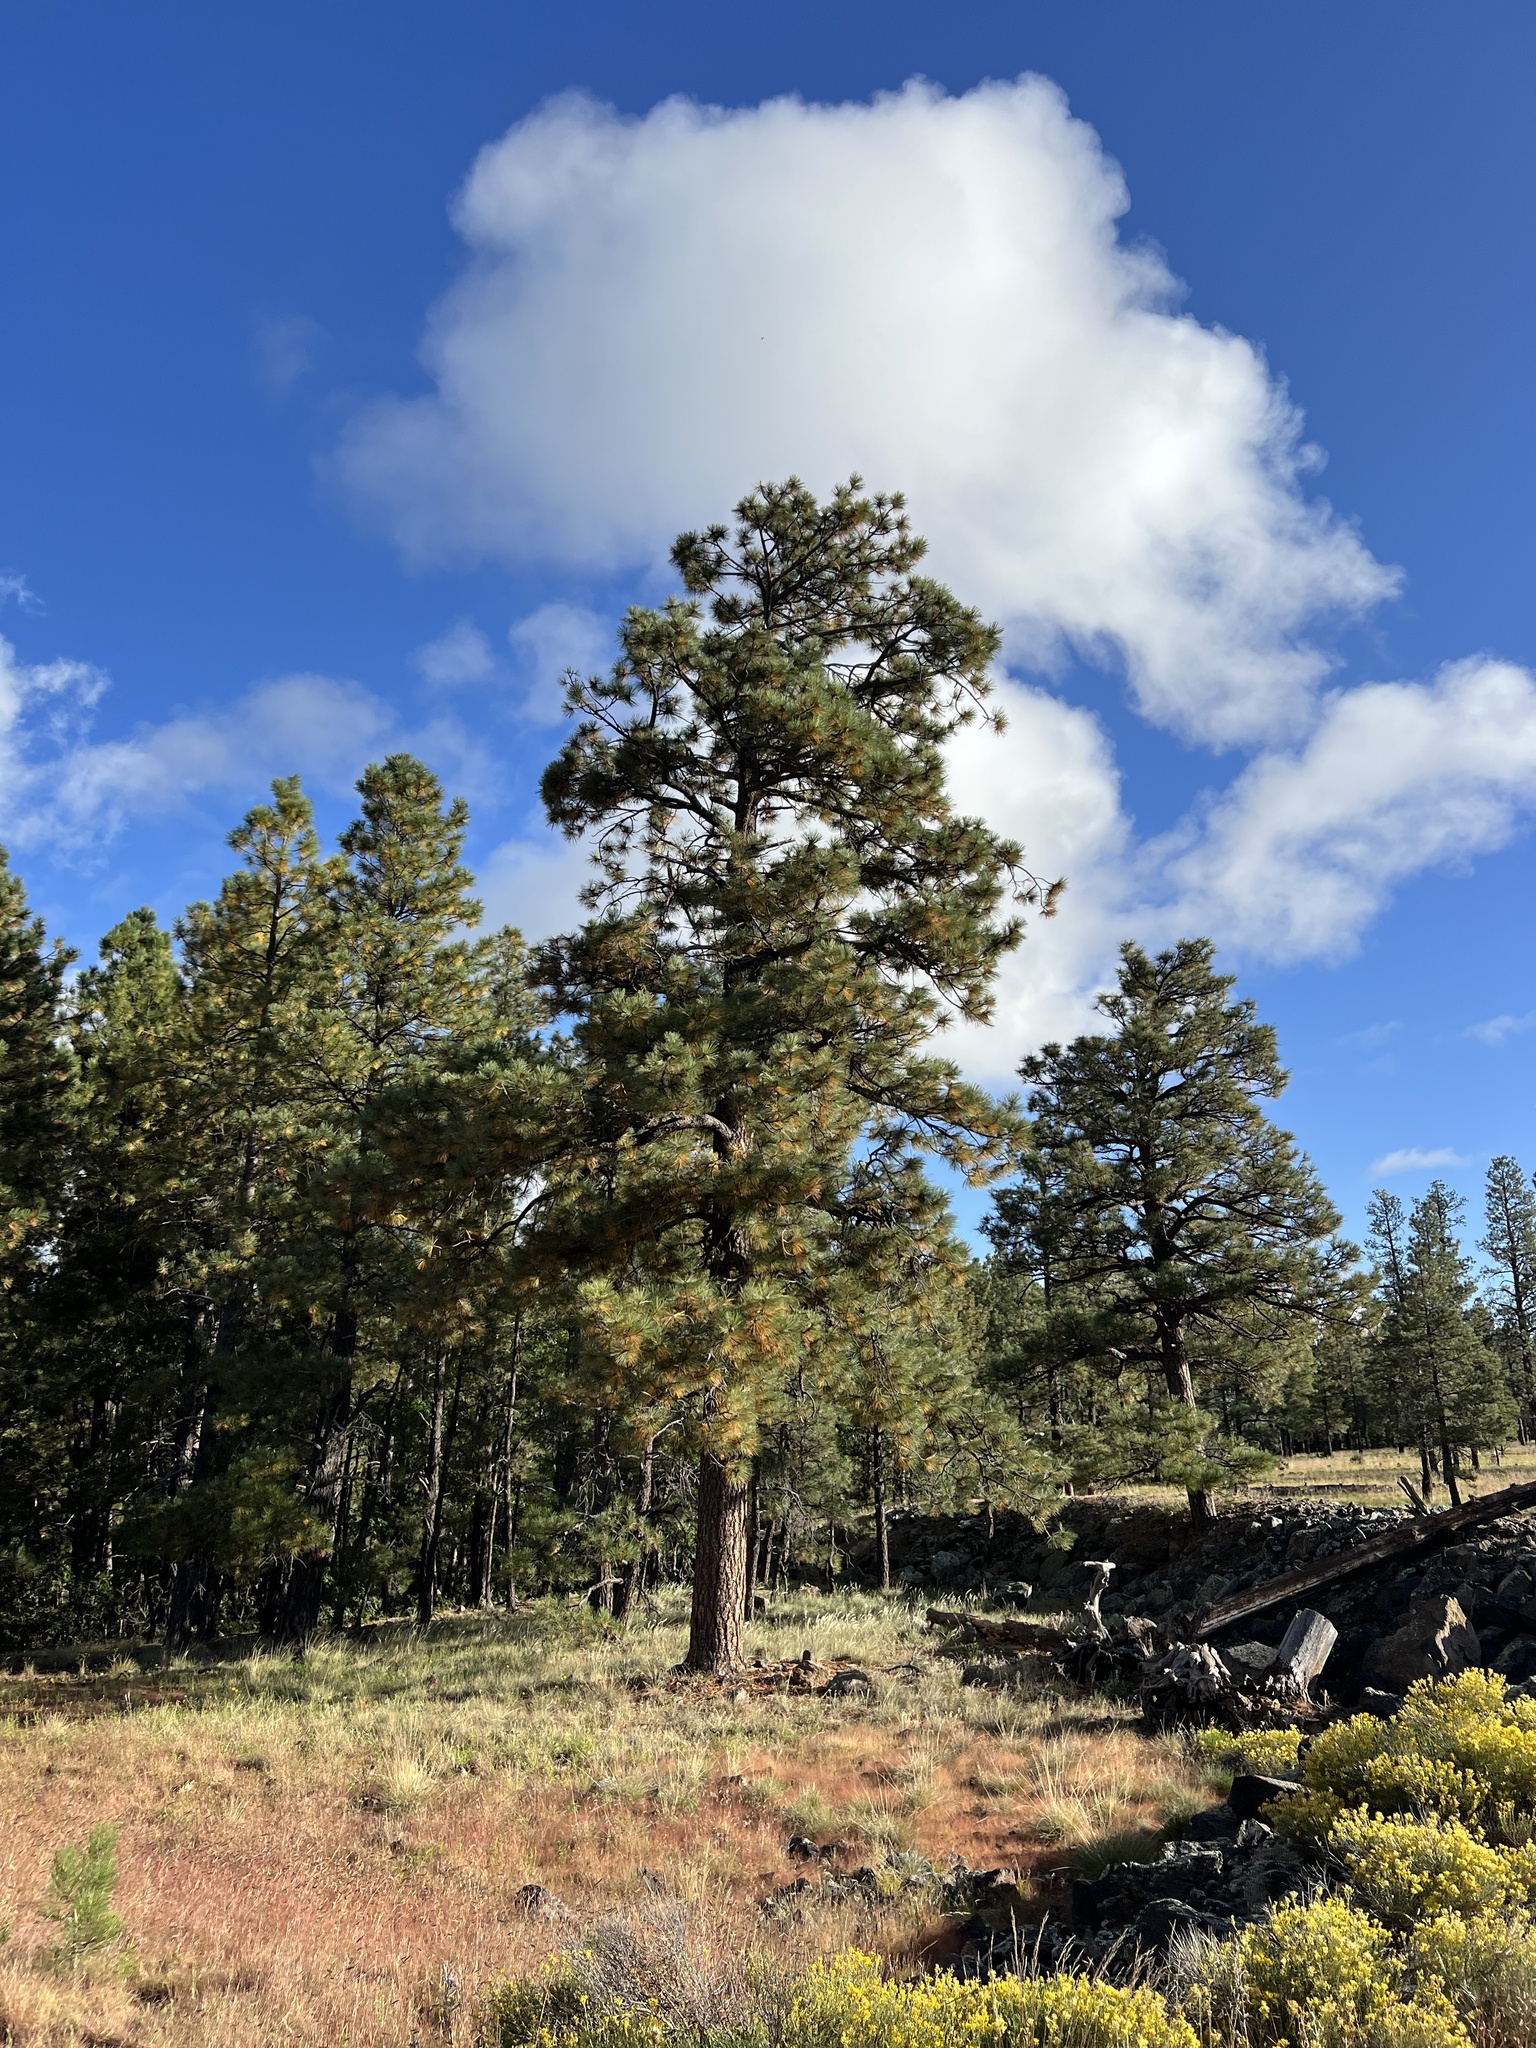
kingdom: Plantae
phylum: Tracheophyta
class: Pinopsida
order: Pinales
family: Pinaceae
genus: Pinus
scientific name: Pinus ponderosa
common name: Western yellow-pine
